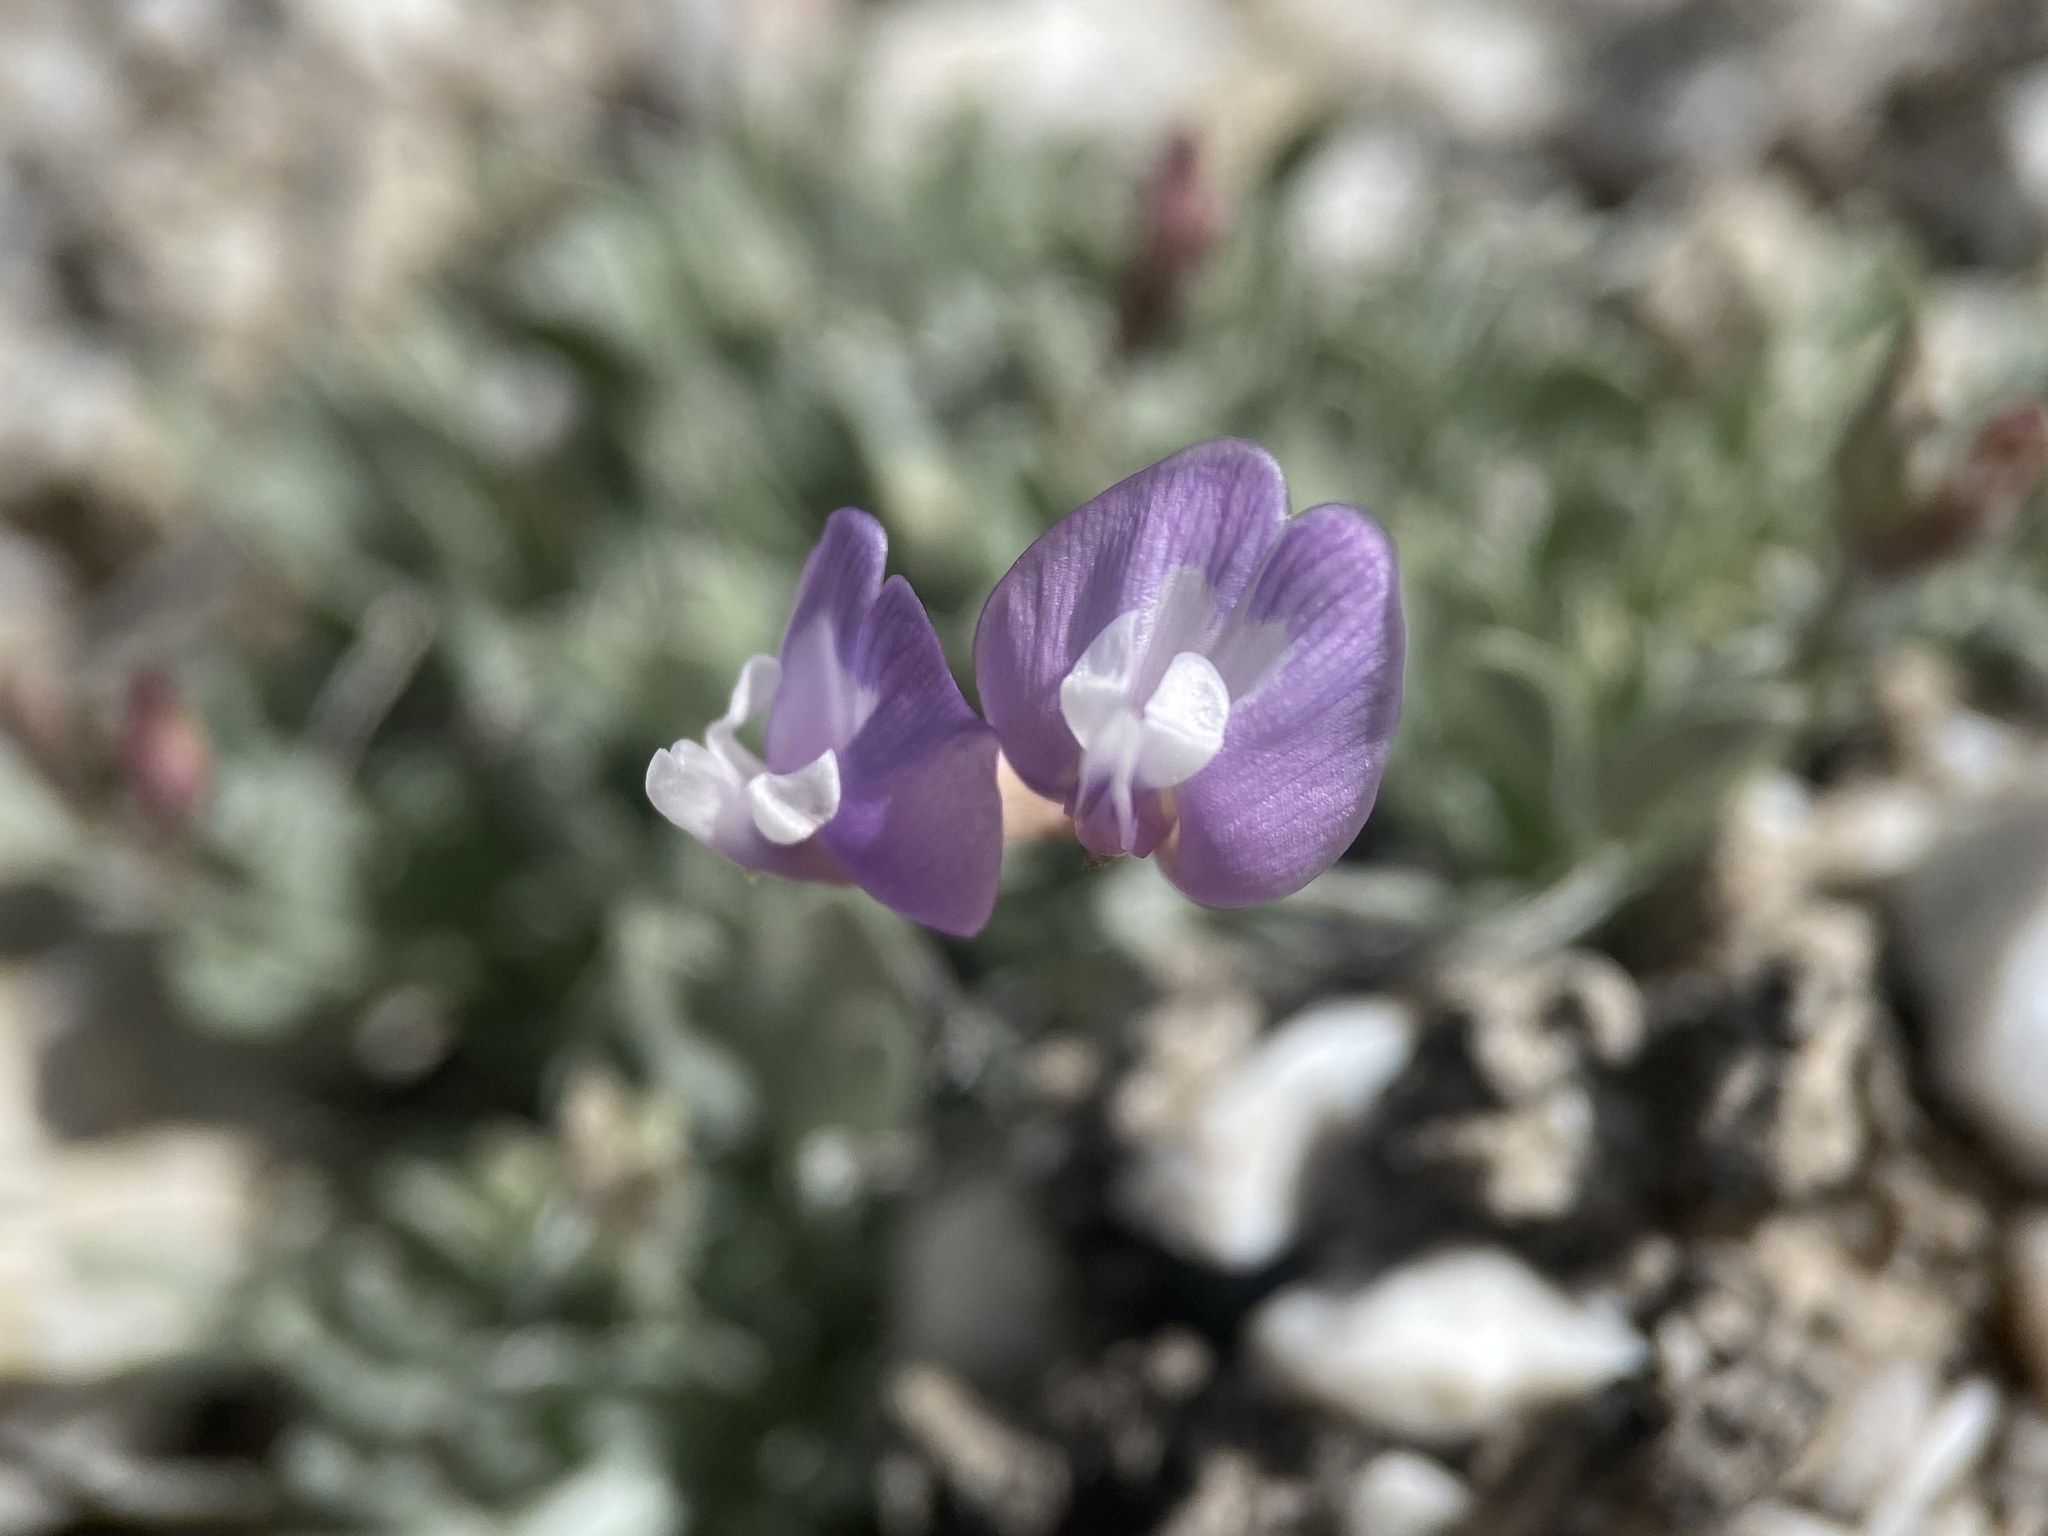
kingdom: Plantae
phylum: Tracheophyta
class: Magnoliopsida
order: Fabales
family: Fabaceae
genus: Astragalus
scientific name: Astragalus calycosus
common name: King's milkvetch
